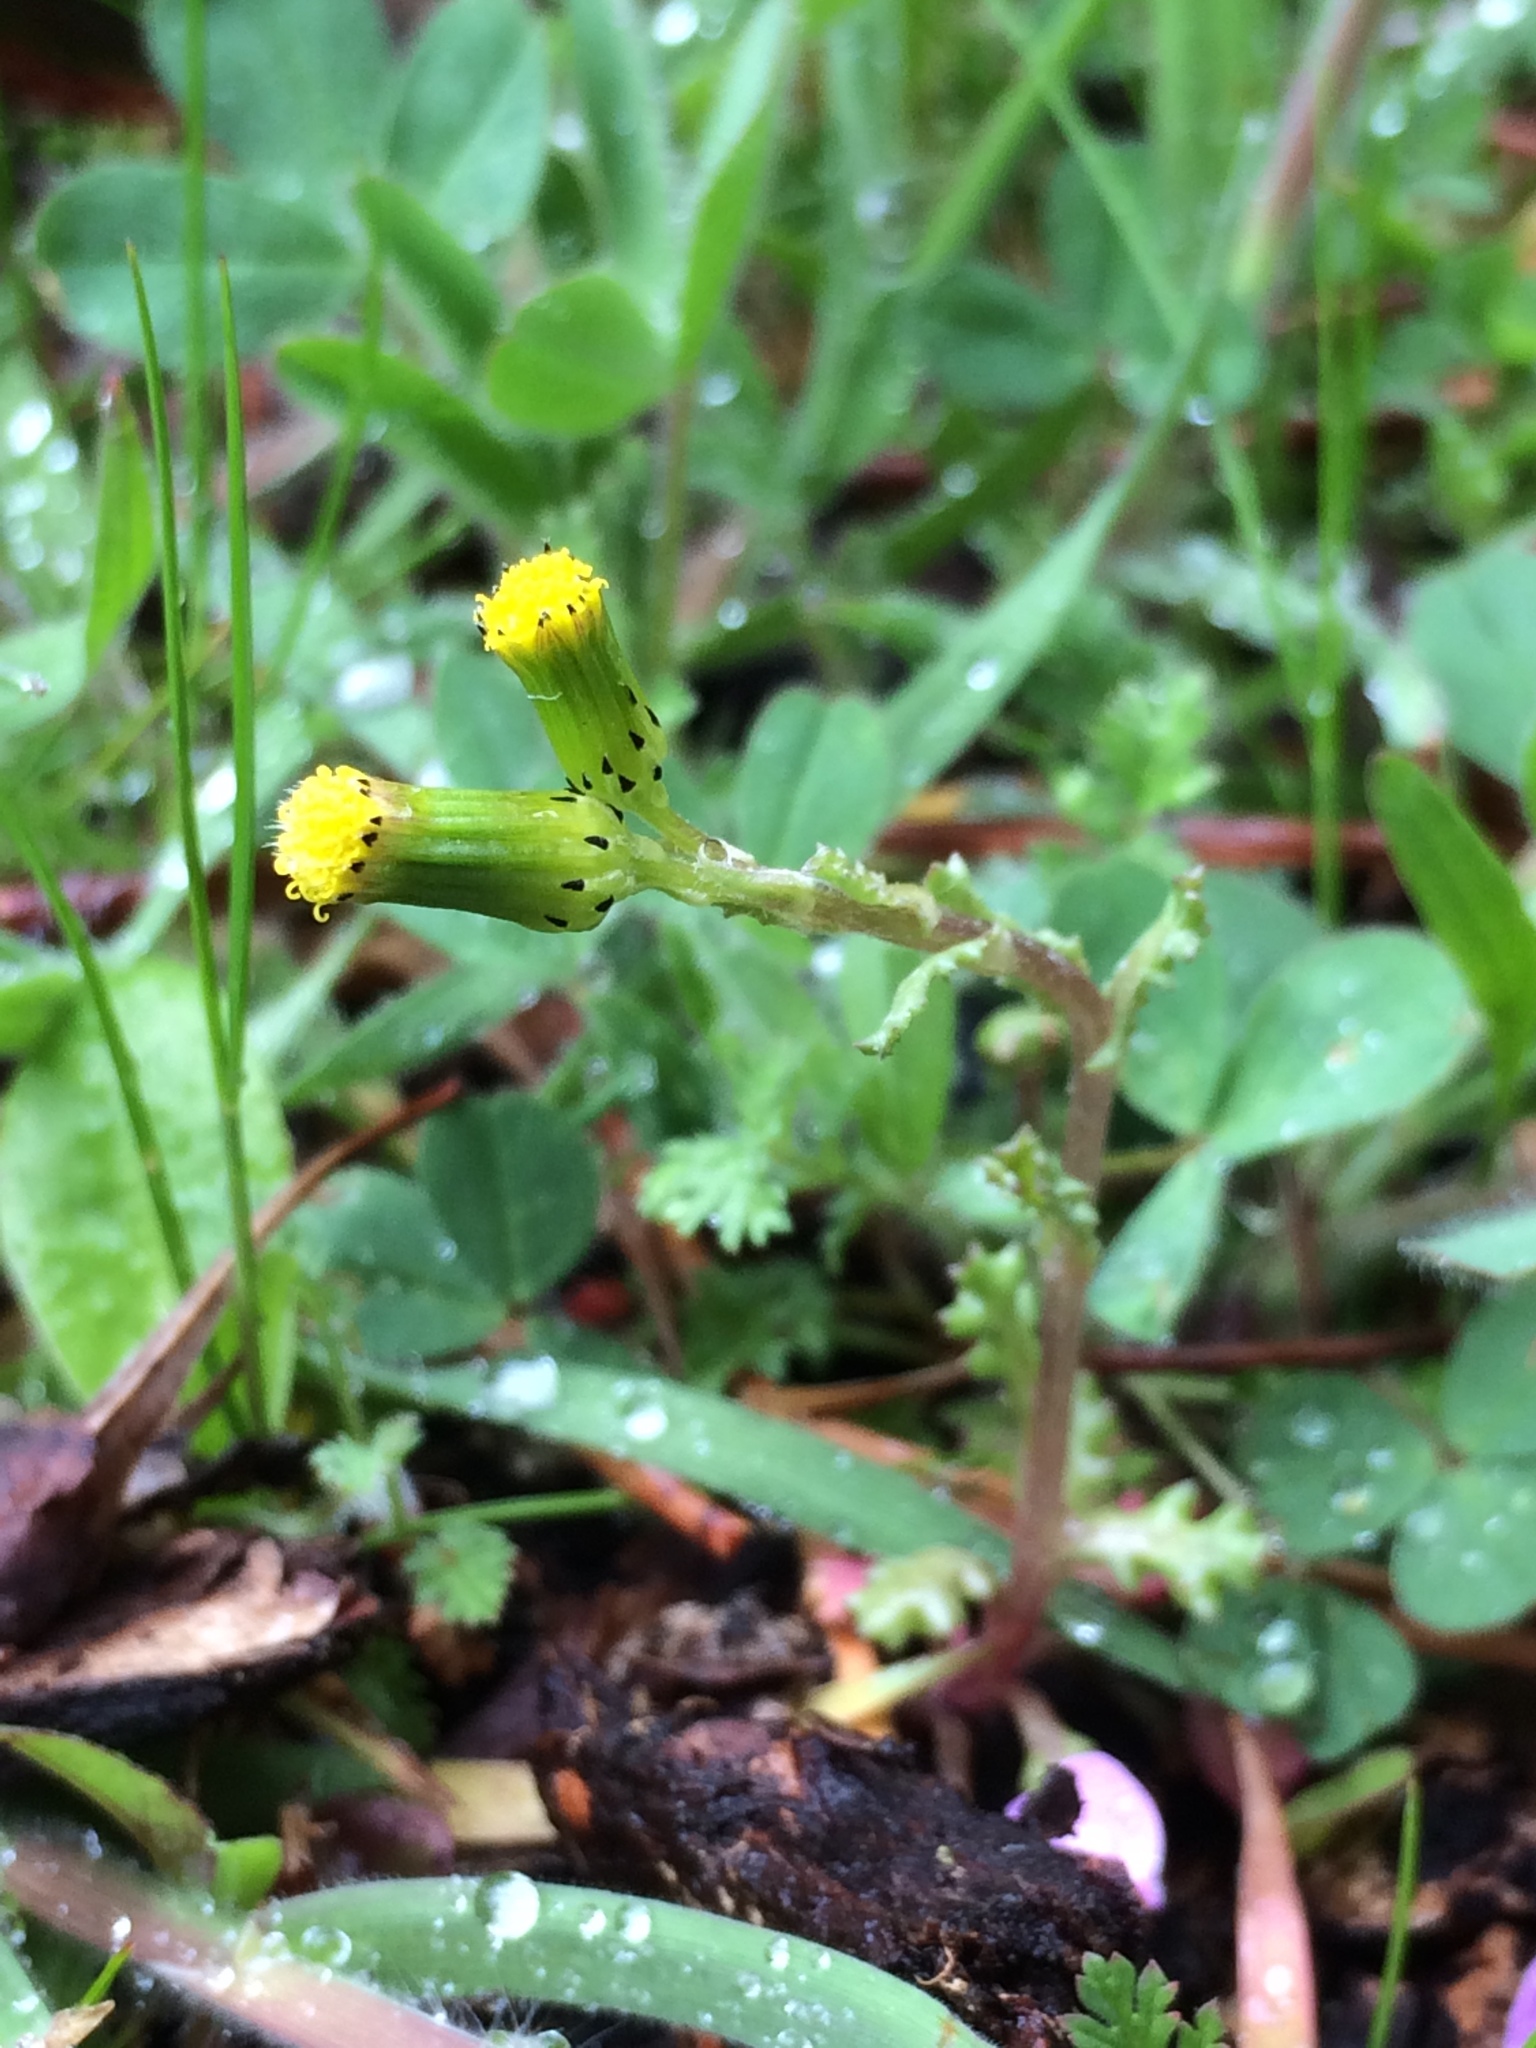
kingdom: Plantae
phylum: Tracheophyta
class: Magnoliopsida
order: Asterales
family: Asteraceae
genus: Senecio
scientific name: Senecio vulgaris
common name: Old-man-in-the-spring
